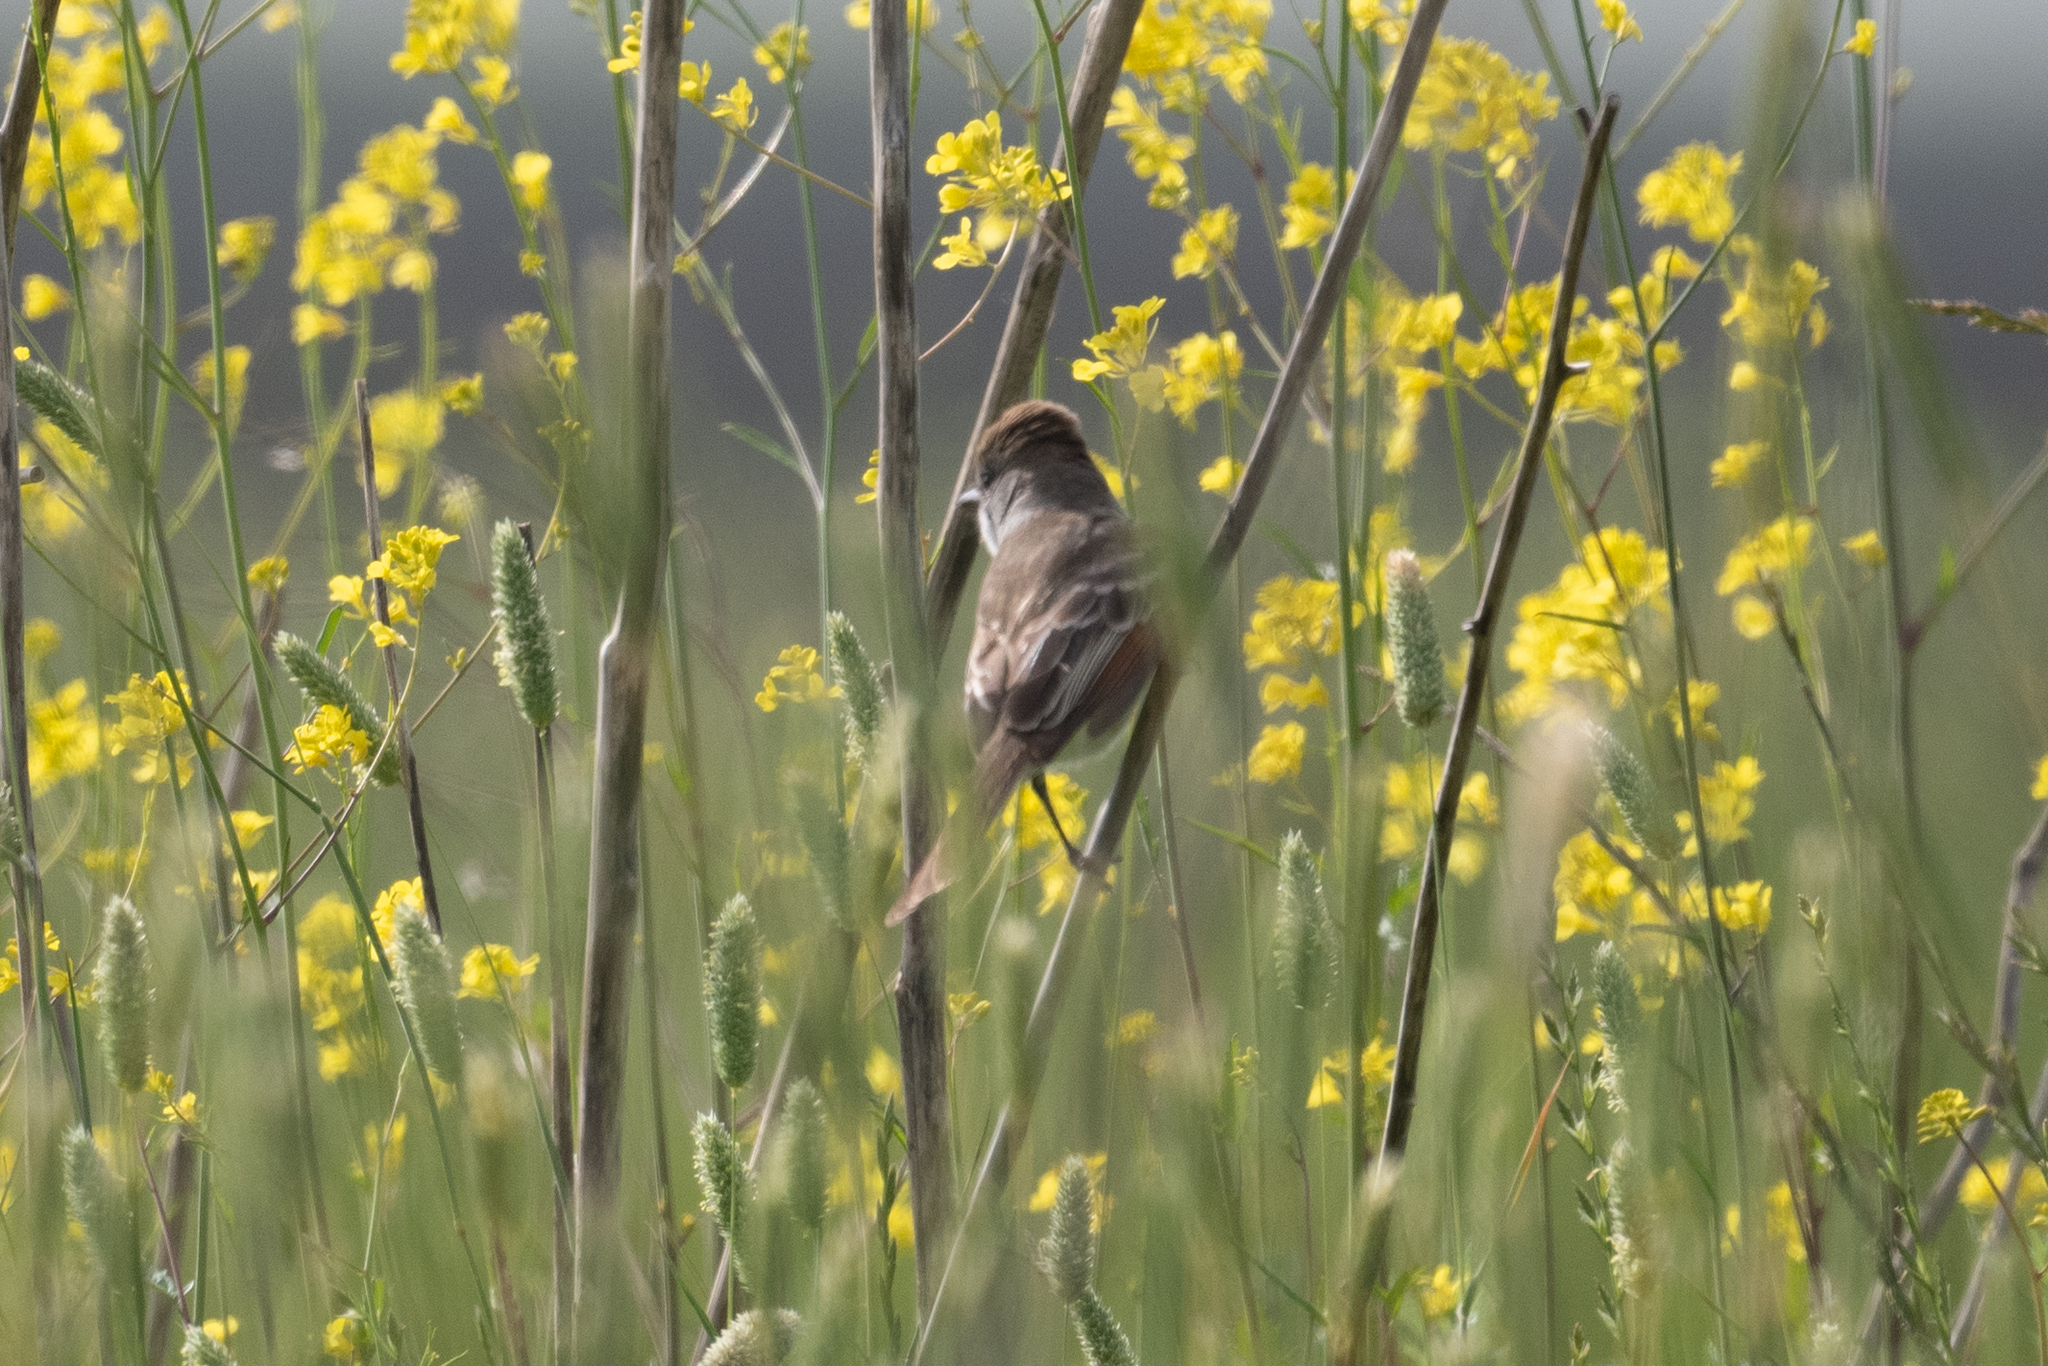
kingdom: Animalia
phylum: Chordata
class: Aves
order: Passeriformes
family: Tyrannidae
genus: Myiarchus
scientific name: Myiarchus cinerascens
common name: Ash-throated flycatcher
